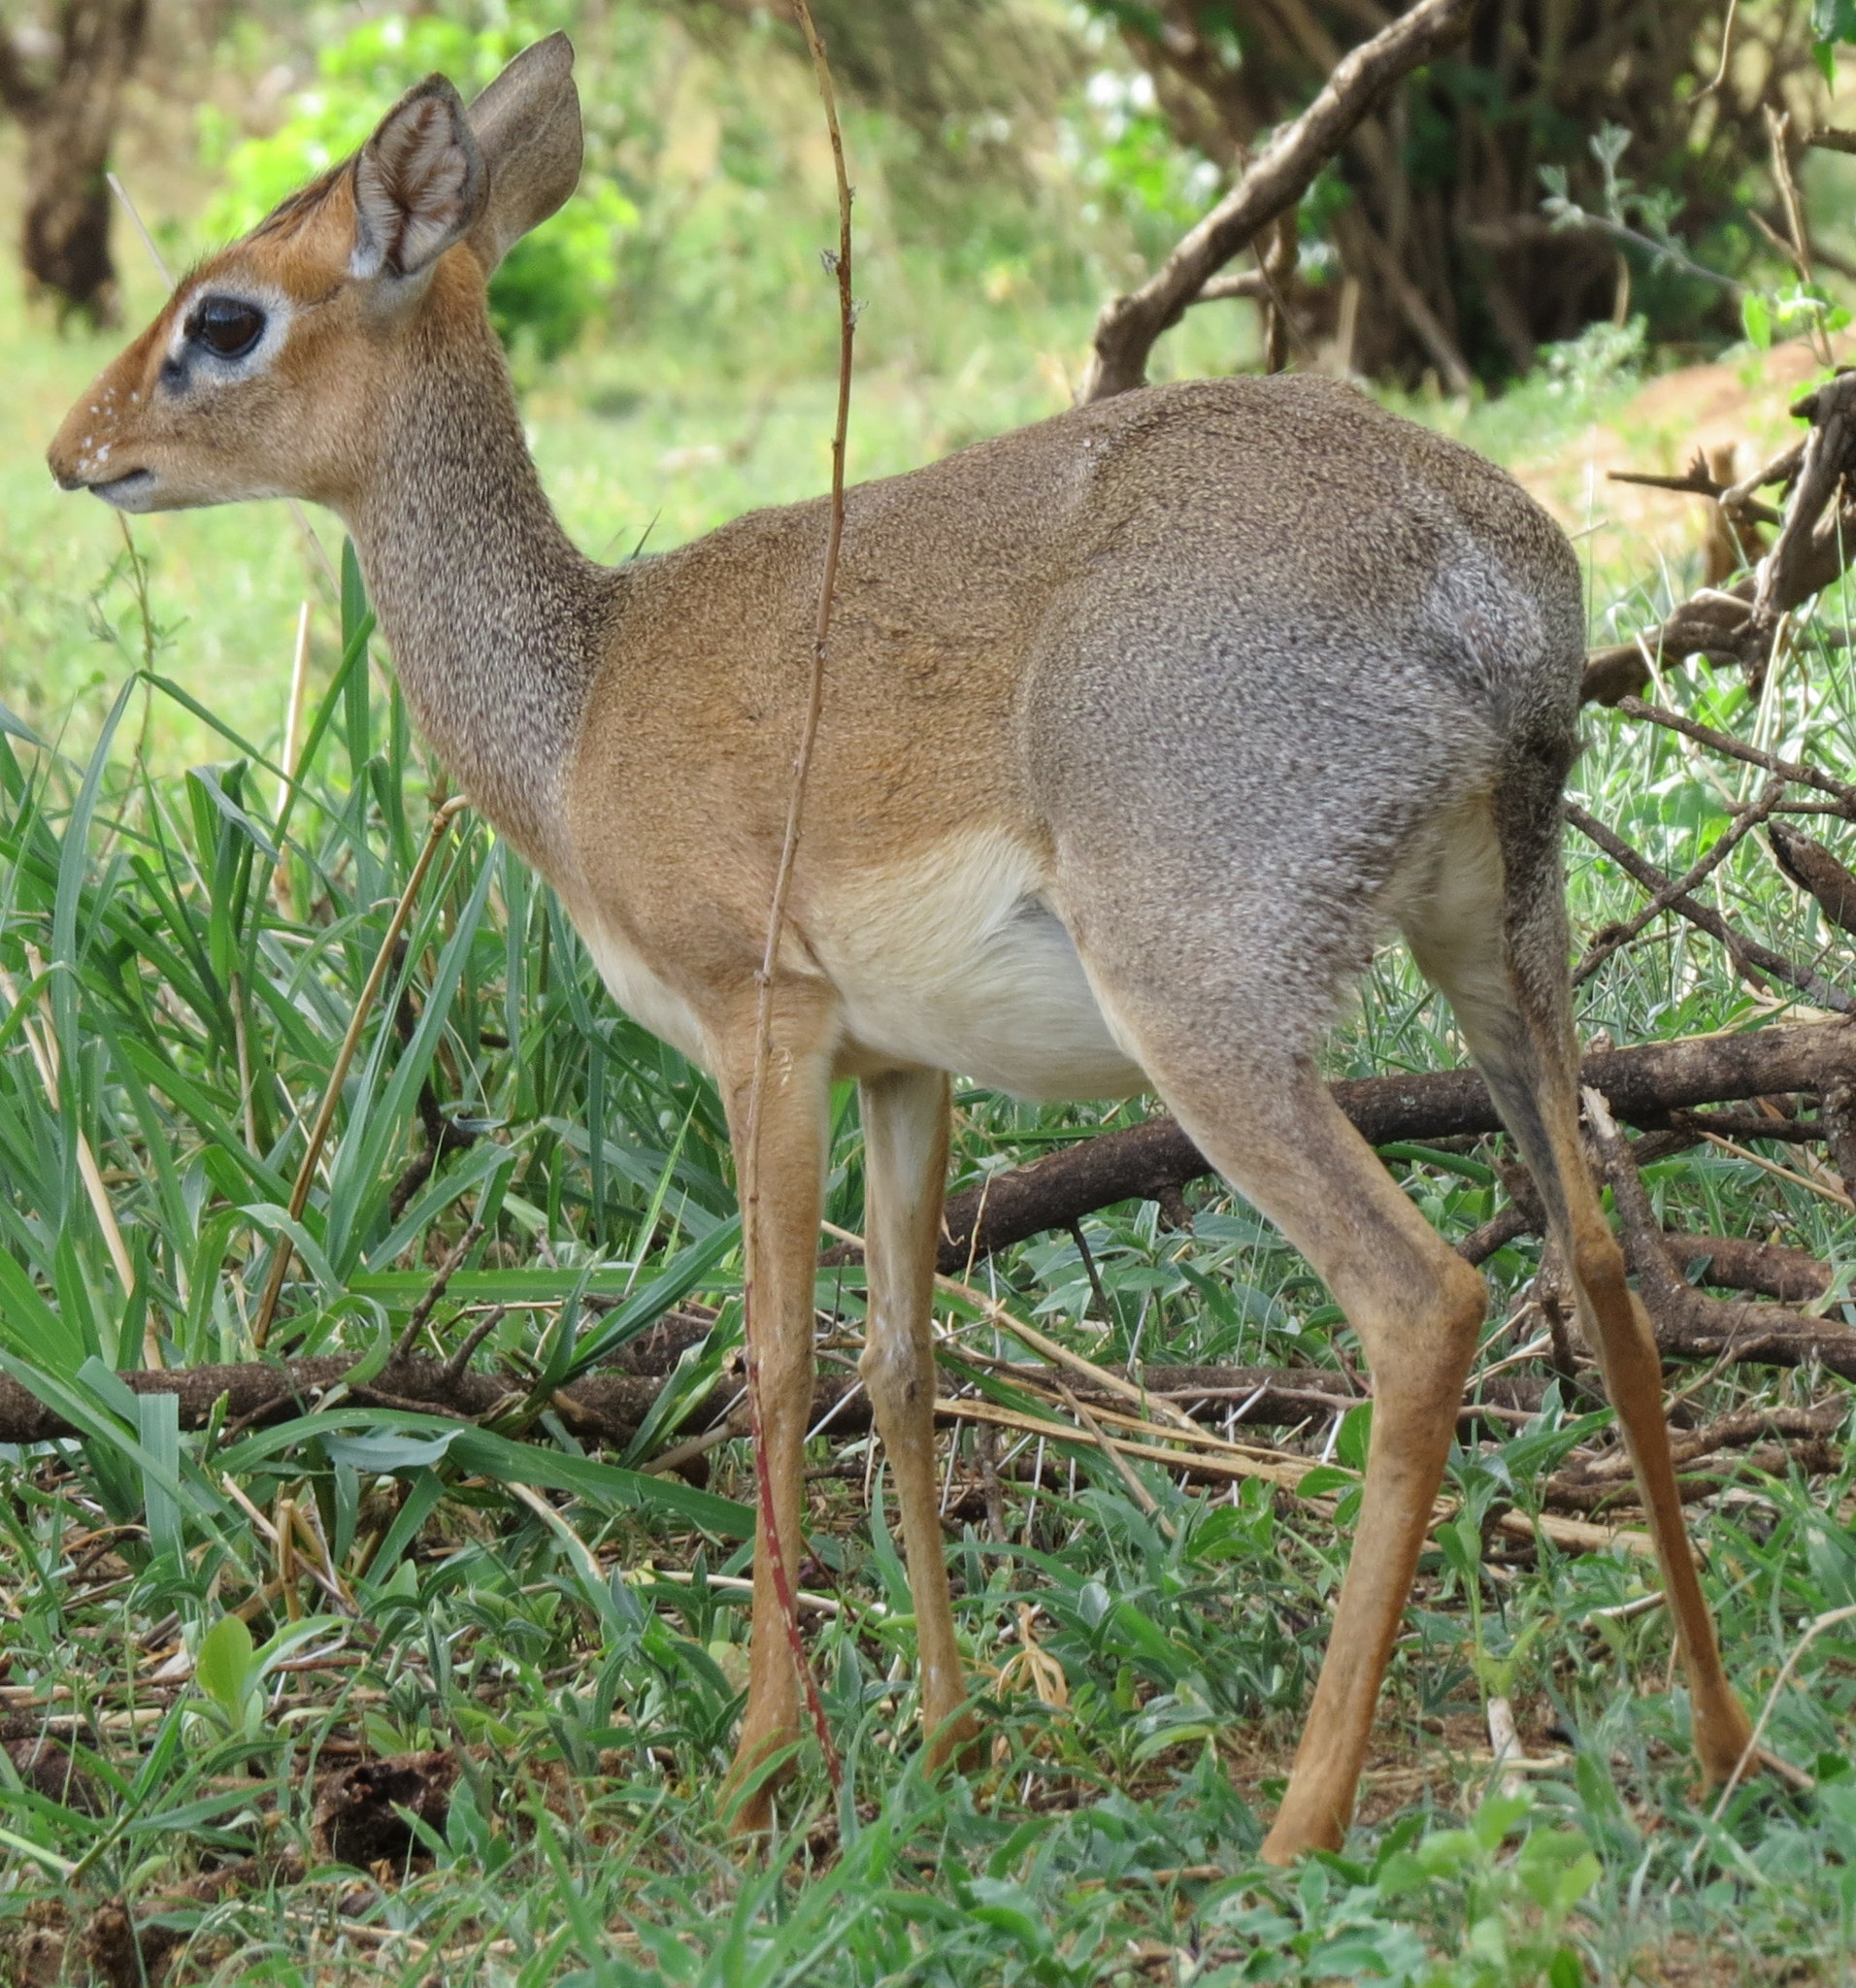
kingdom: Animalia
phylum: Chordata
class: Mammalia
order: Artiodactyla
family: Bovidae
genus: Madoqua
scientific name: Madoqua
